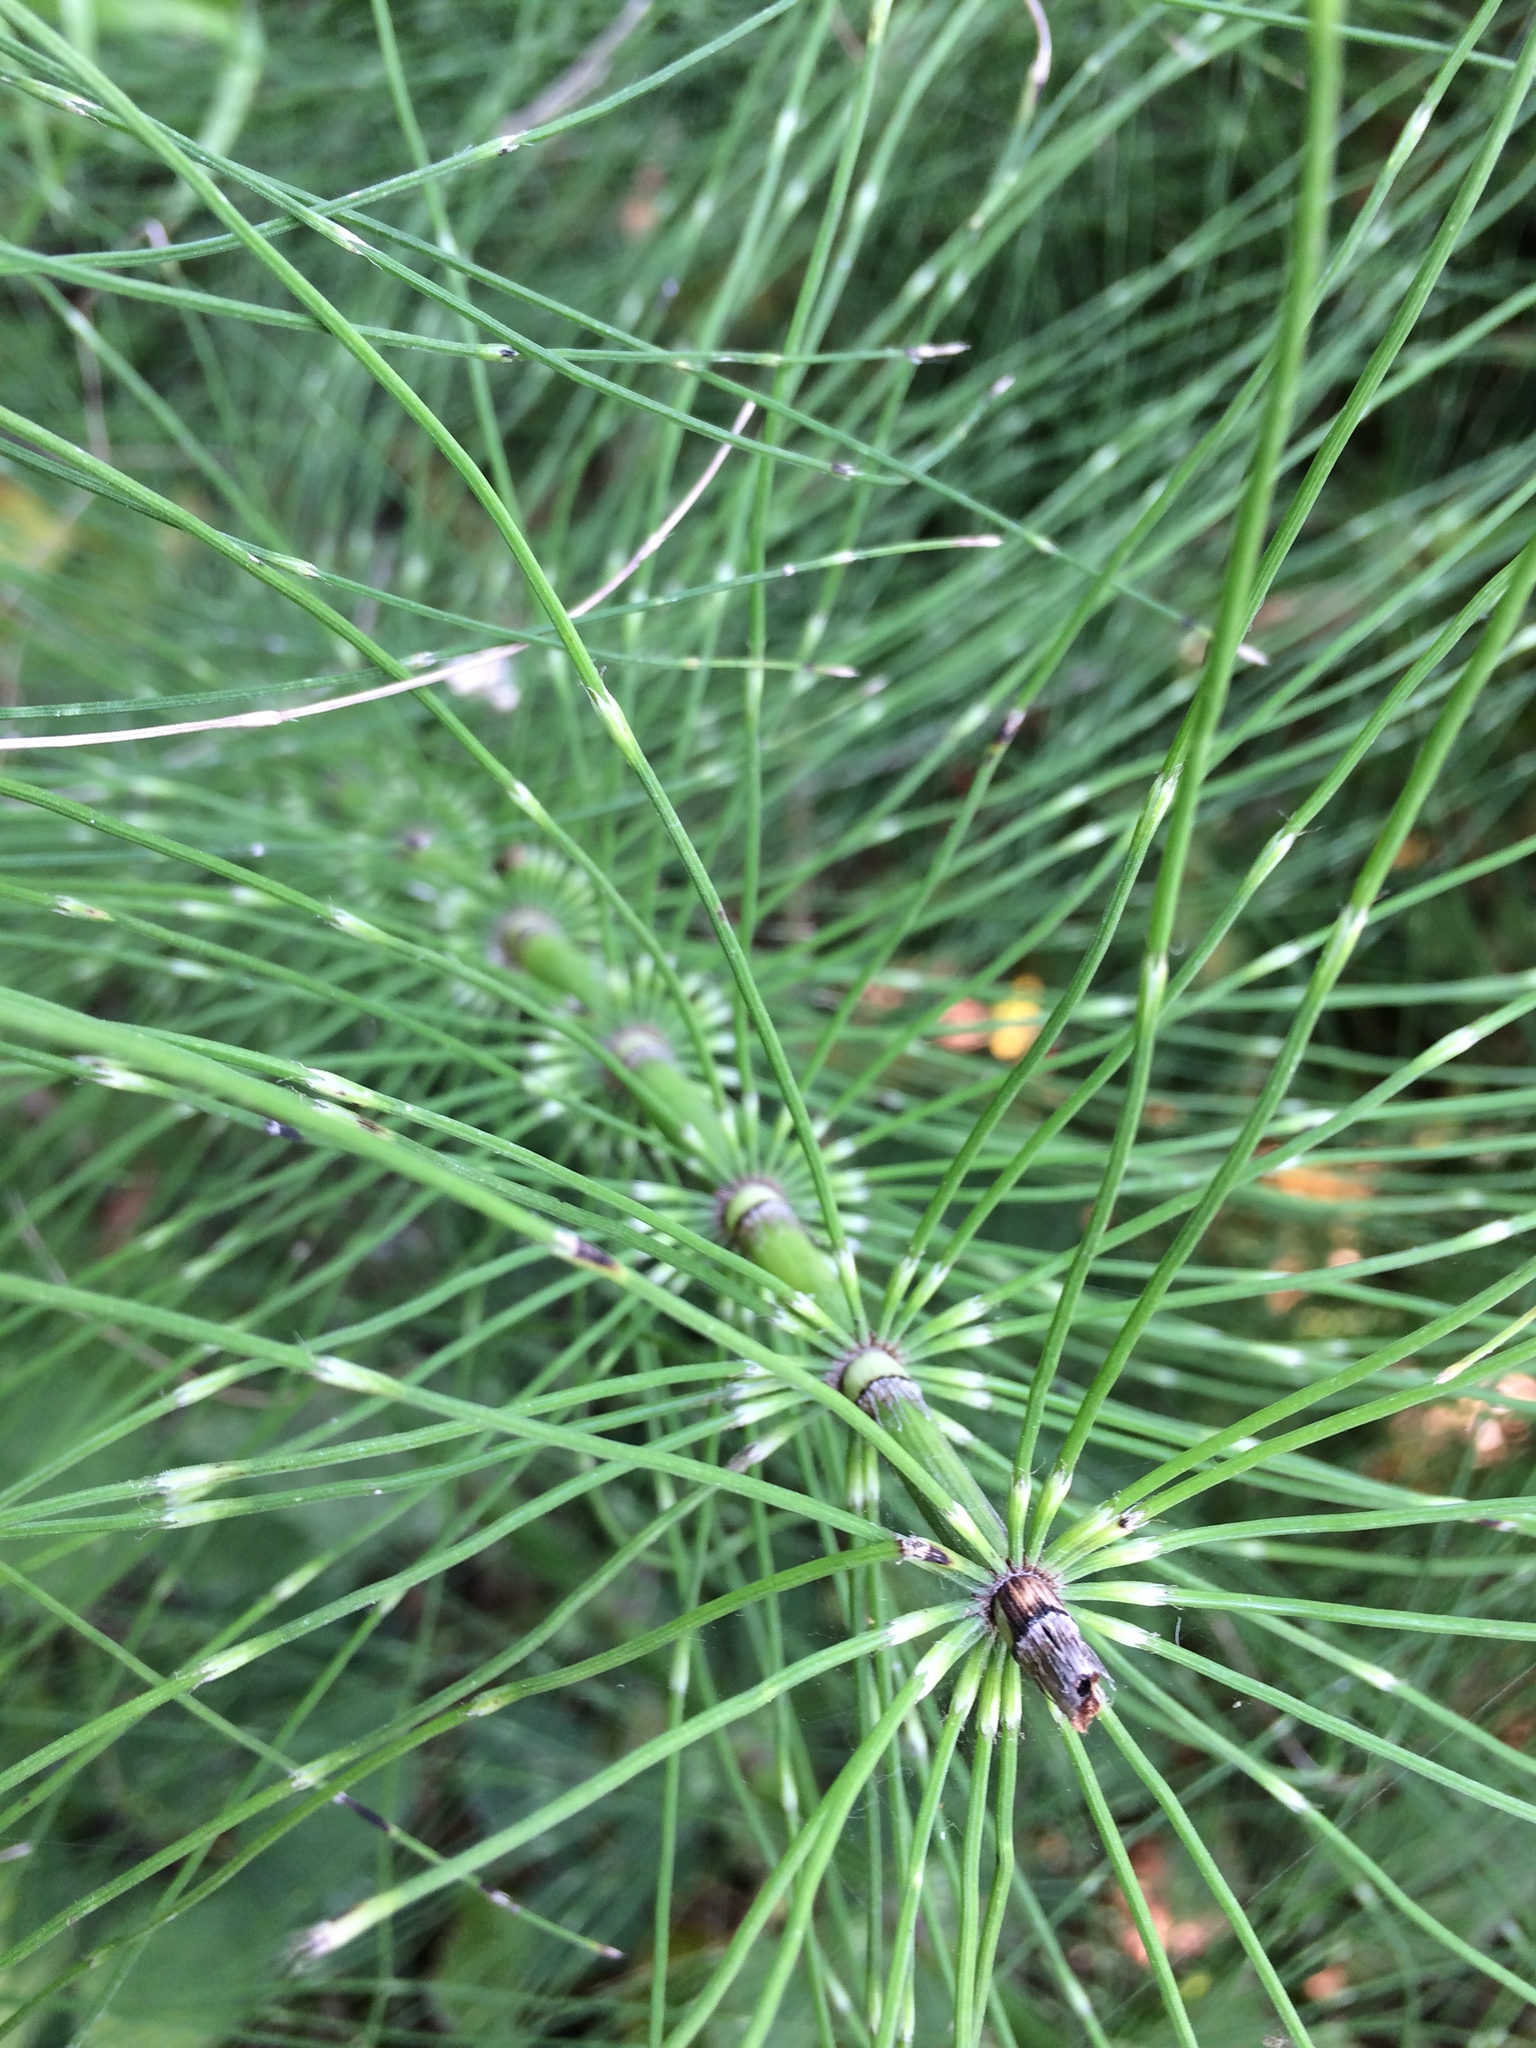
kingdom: Plantae
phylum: Tracheophyta
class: Polypodiopsida
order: Equisetales
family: Equisetaceae
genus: Equisetum
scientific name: Equisetum telmateia
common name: Great horsetail
